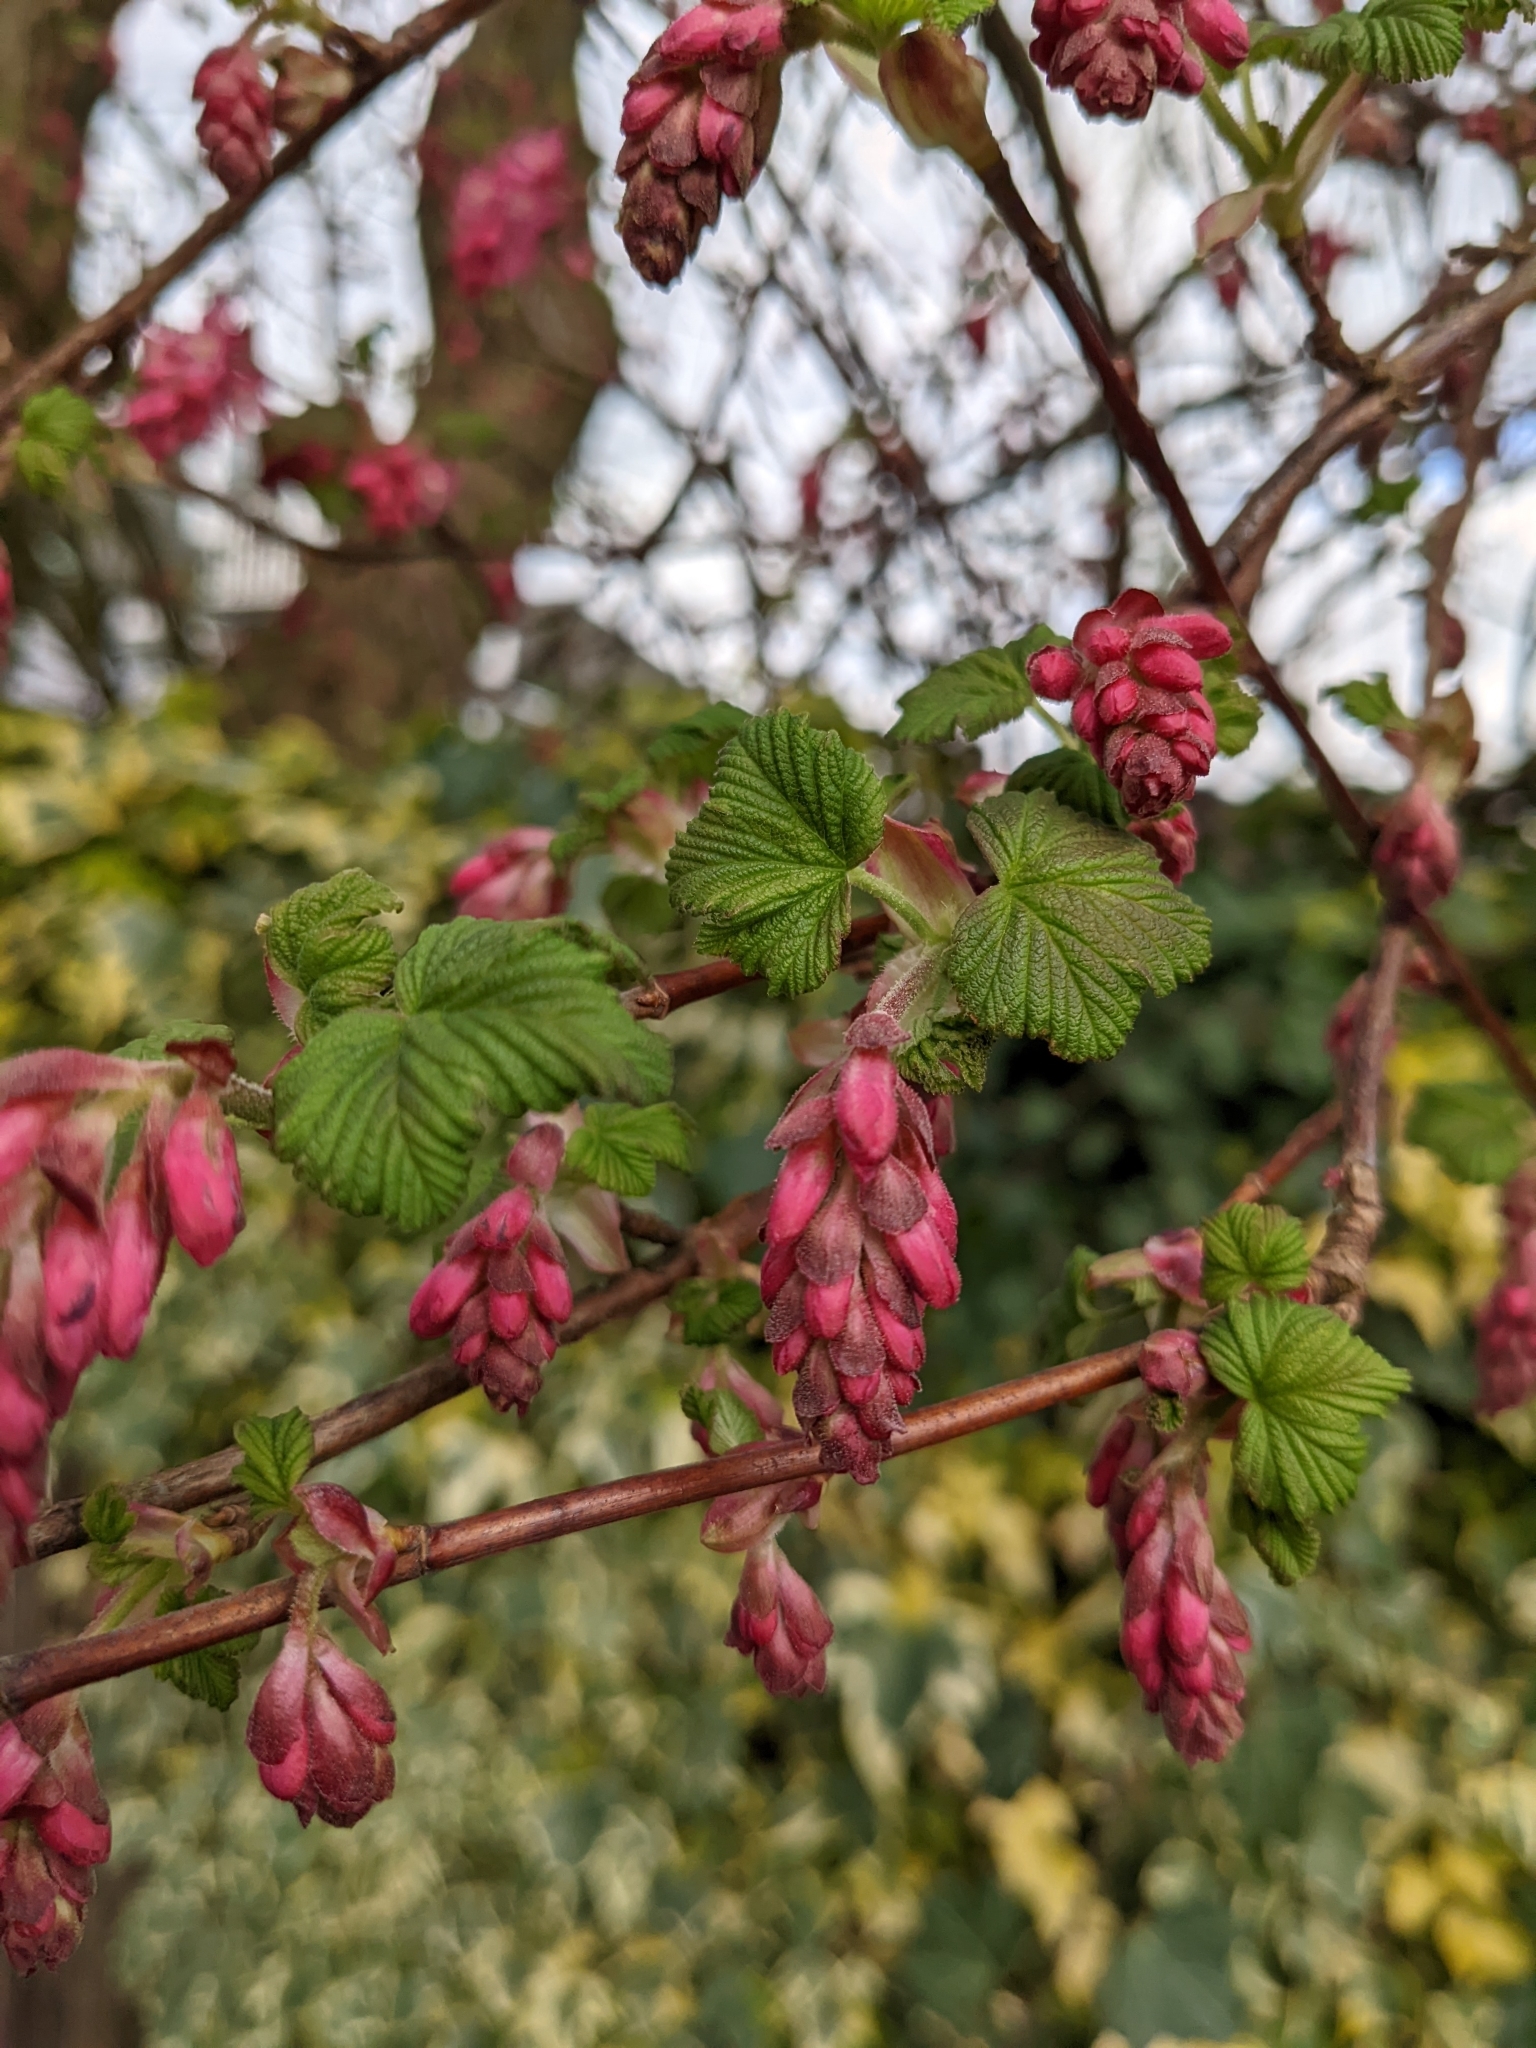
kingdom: Plantae
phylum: Tracheophyta
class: Magnoliopsida
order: Saxifragales
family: Grossulariaceae
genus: Ribes
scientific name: Ribes sanguineum
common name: Flowering currant
